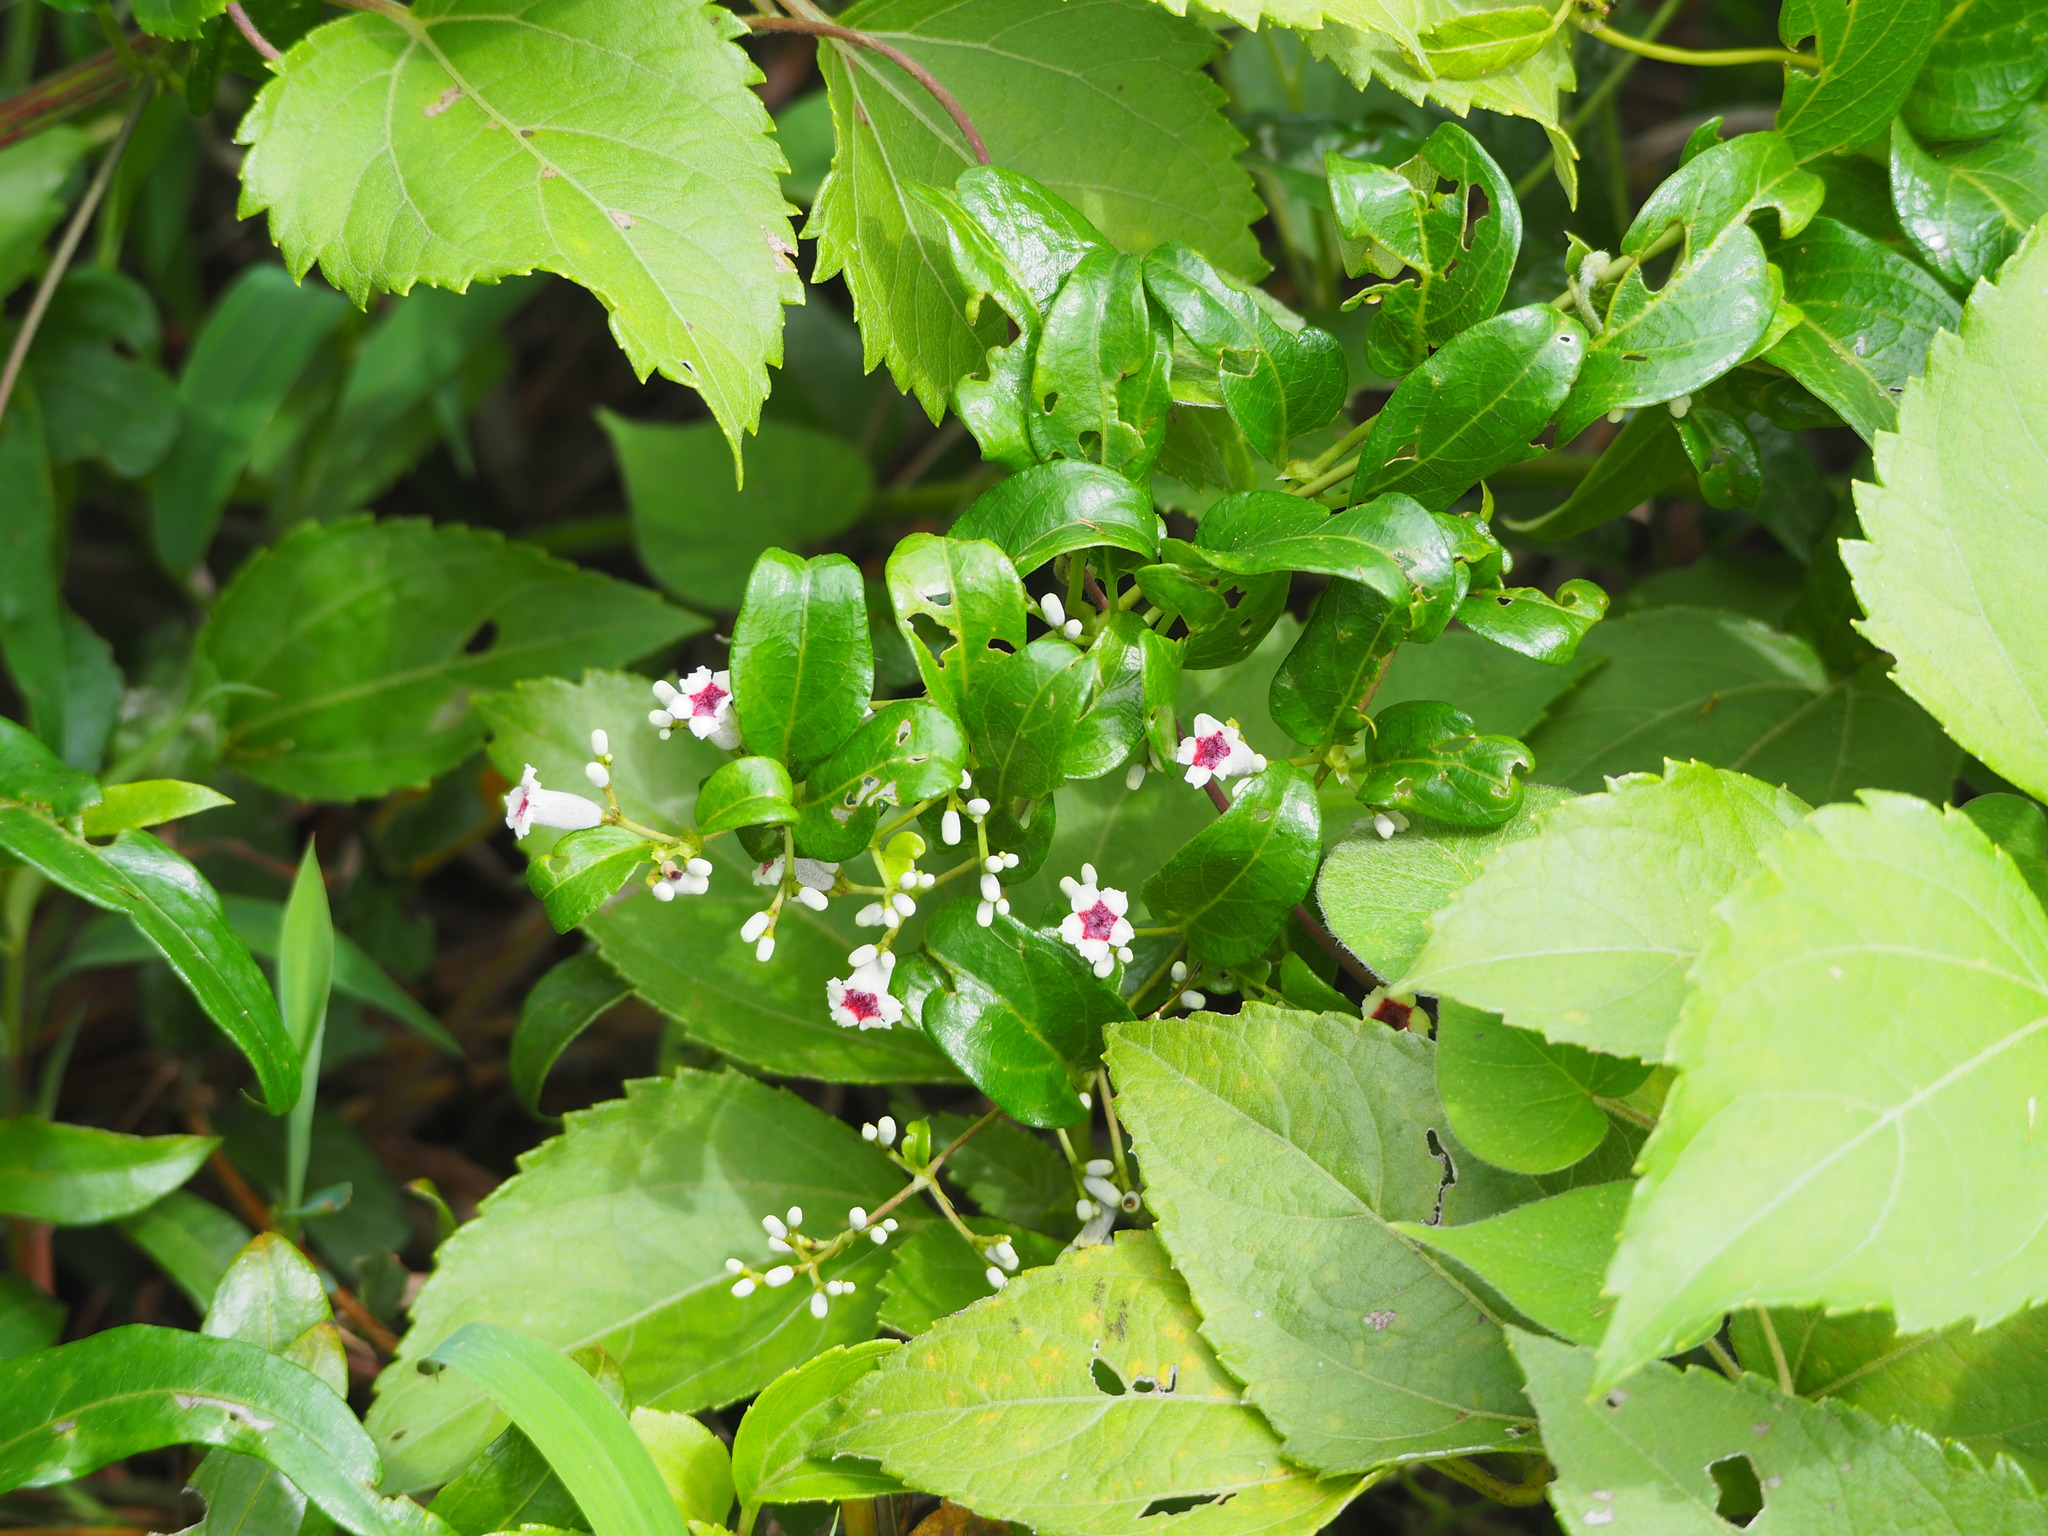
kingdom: Plantae
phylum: Tracheophyta
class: Magnoliopsida
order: Gentianales
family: Rubiaceae
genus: Paederia
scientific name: Paederia foetida
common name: Stinkvine
